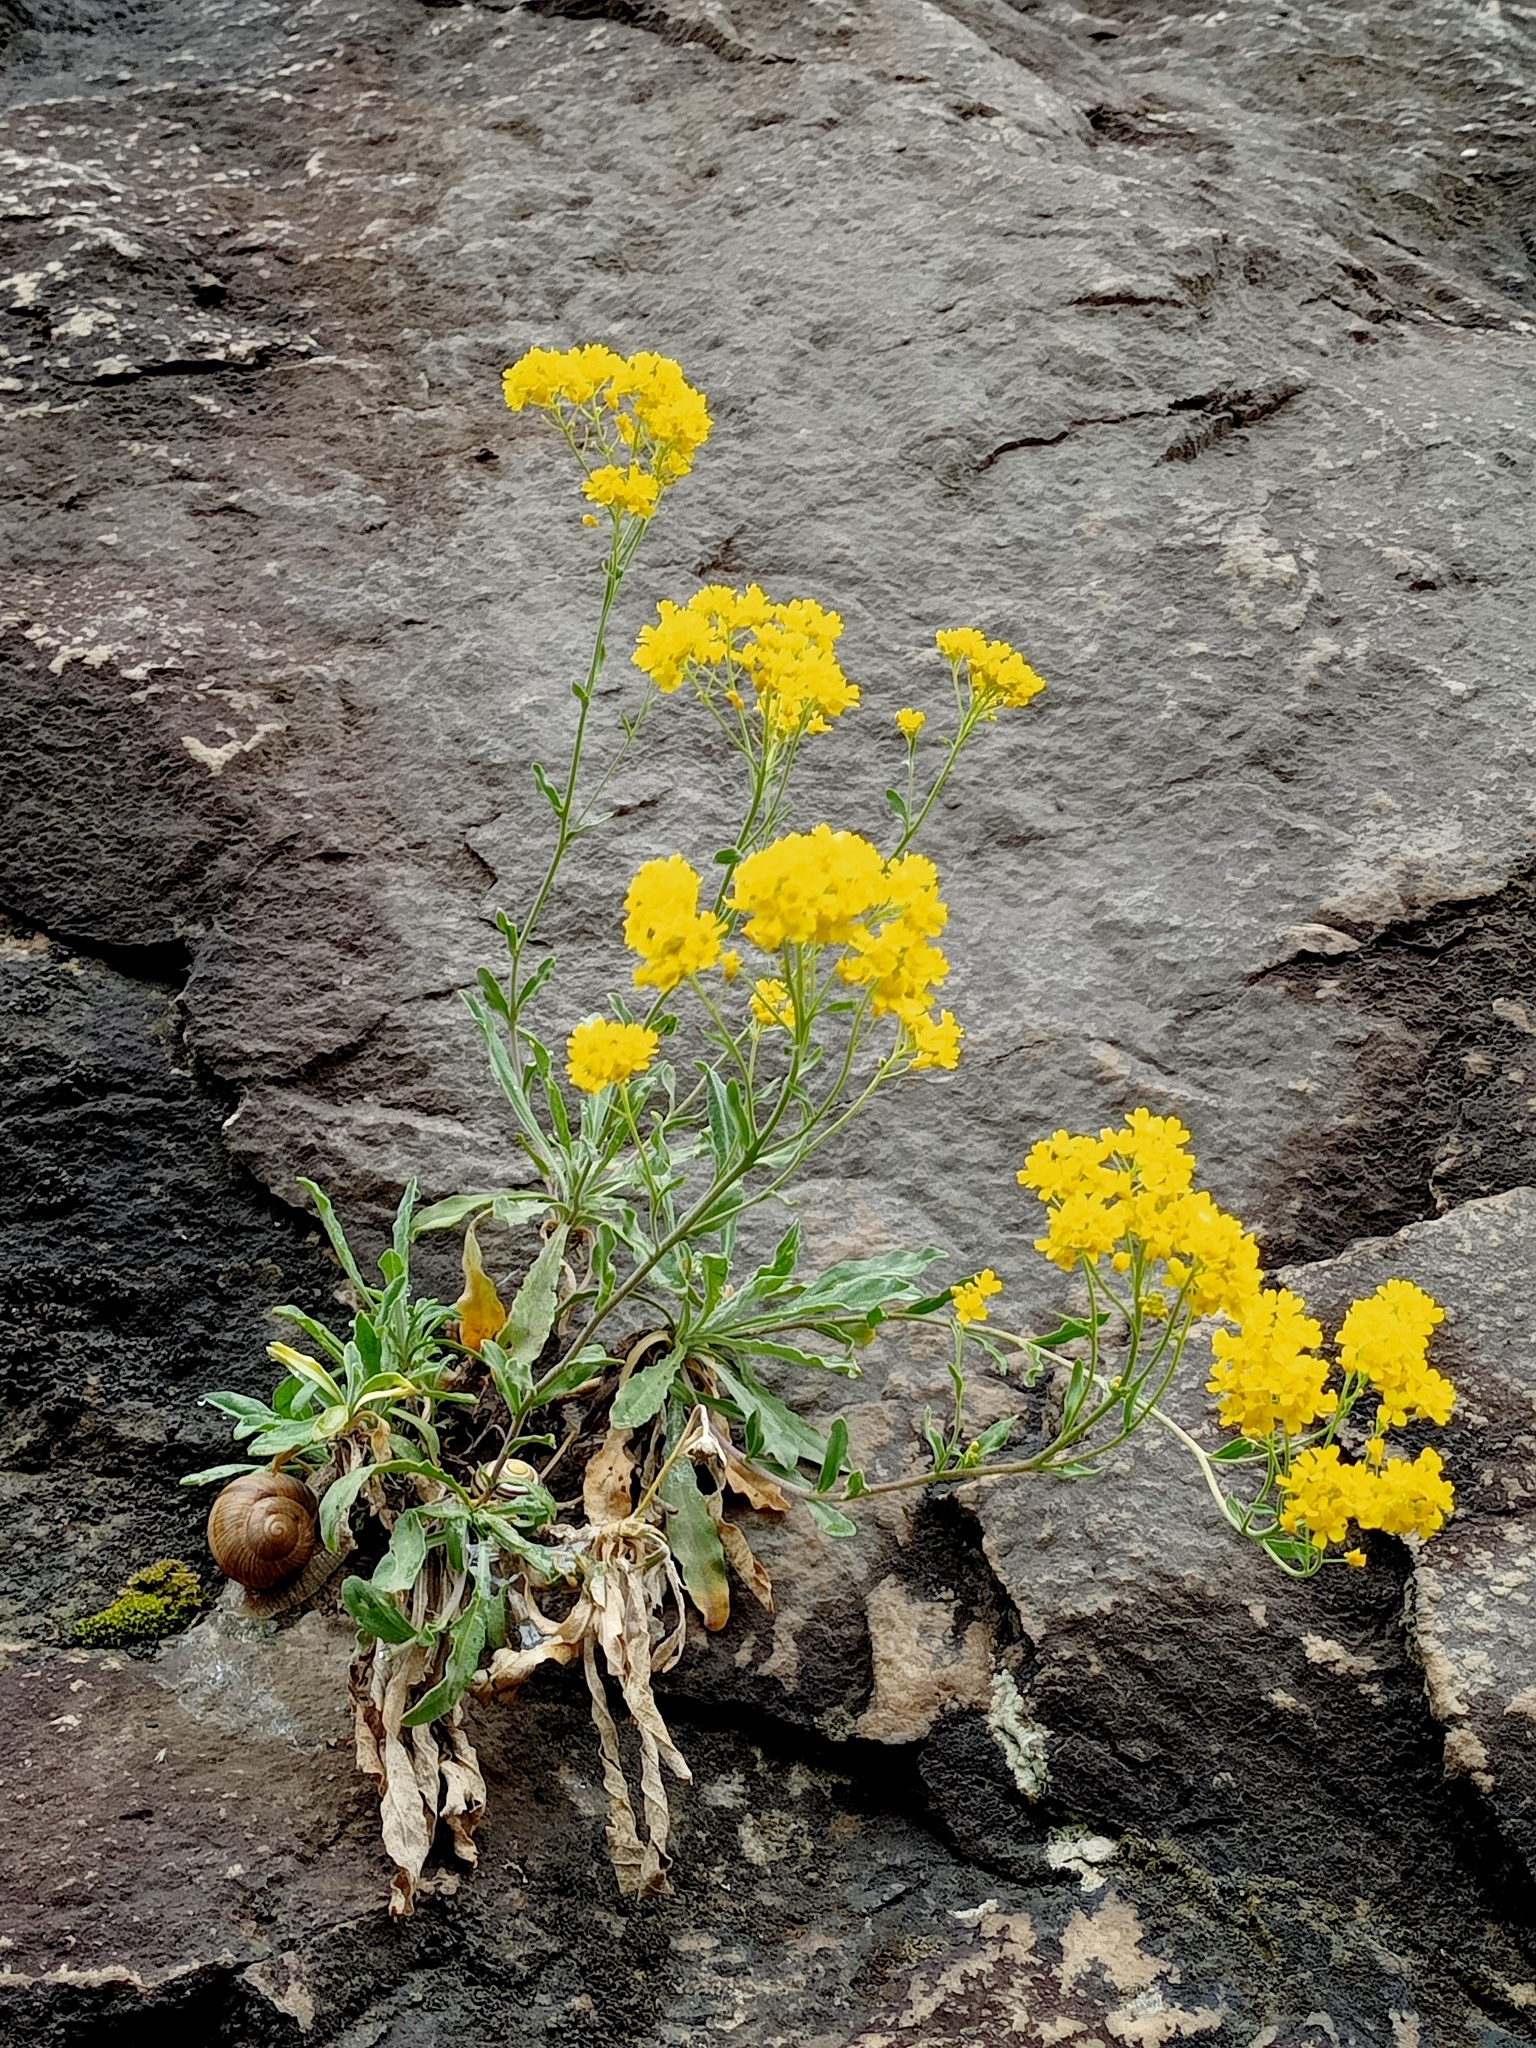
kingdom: Plantae
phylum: Tracheophyta
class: Magnoliopsida
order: Brassicales
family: Brassicaceae
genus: Aurinia
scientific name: Aurinia saxatilis
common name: Golden-tuft alyssum
